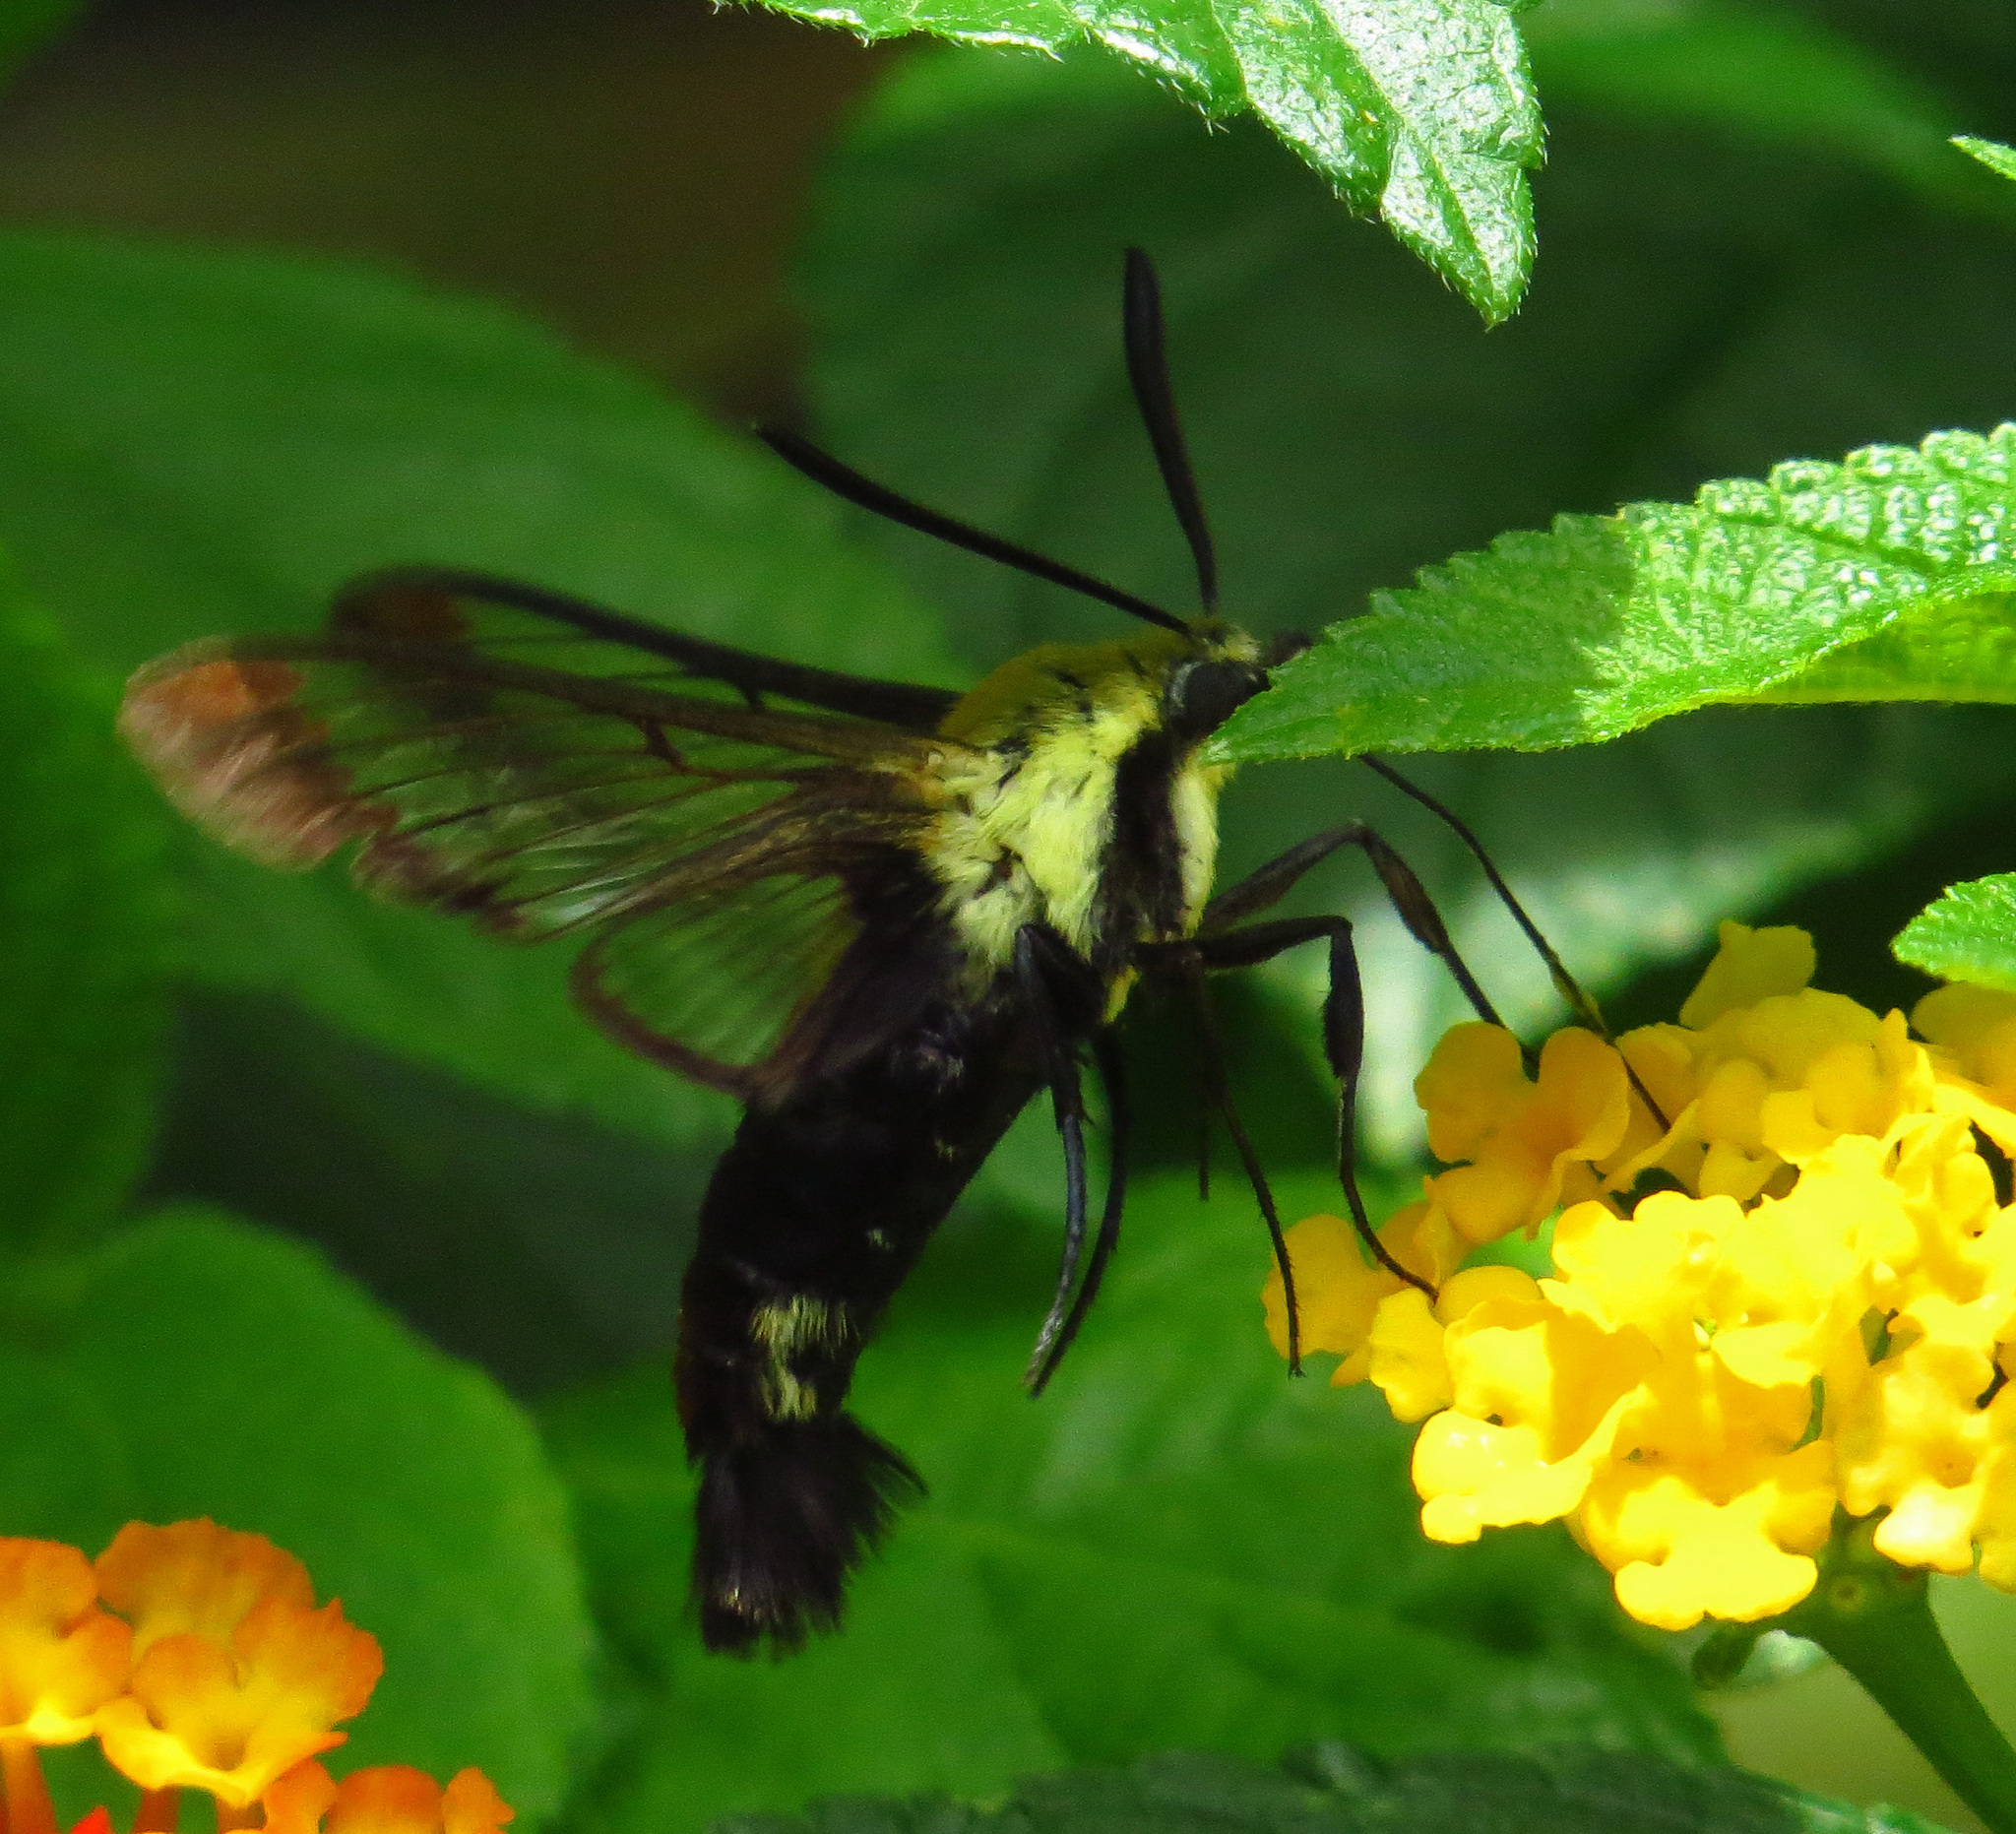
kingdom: Animalia
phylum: Arthropoda
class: Insecta
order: Lepidoptera
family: Sphingidae
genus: Hemaris
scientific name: Hemaris diffinis
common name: Bumblebee moth
